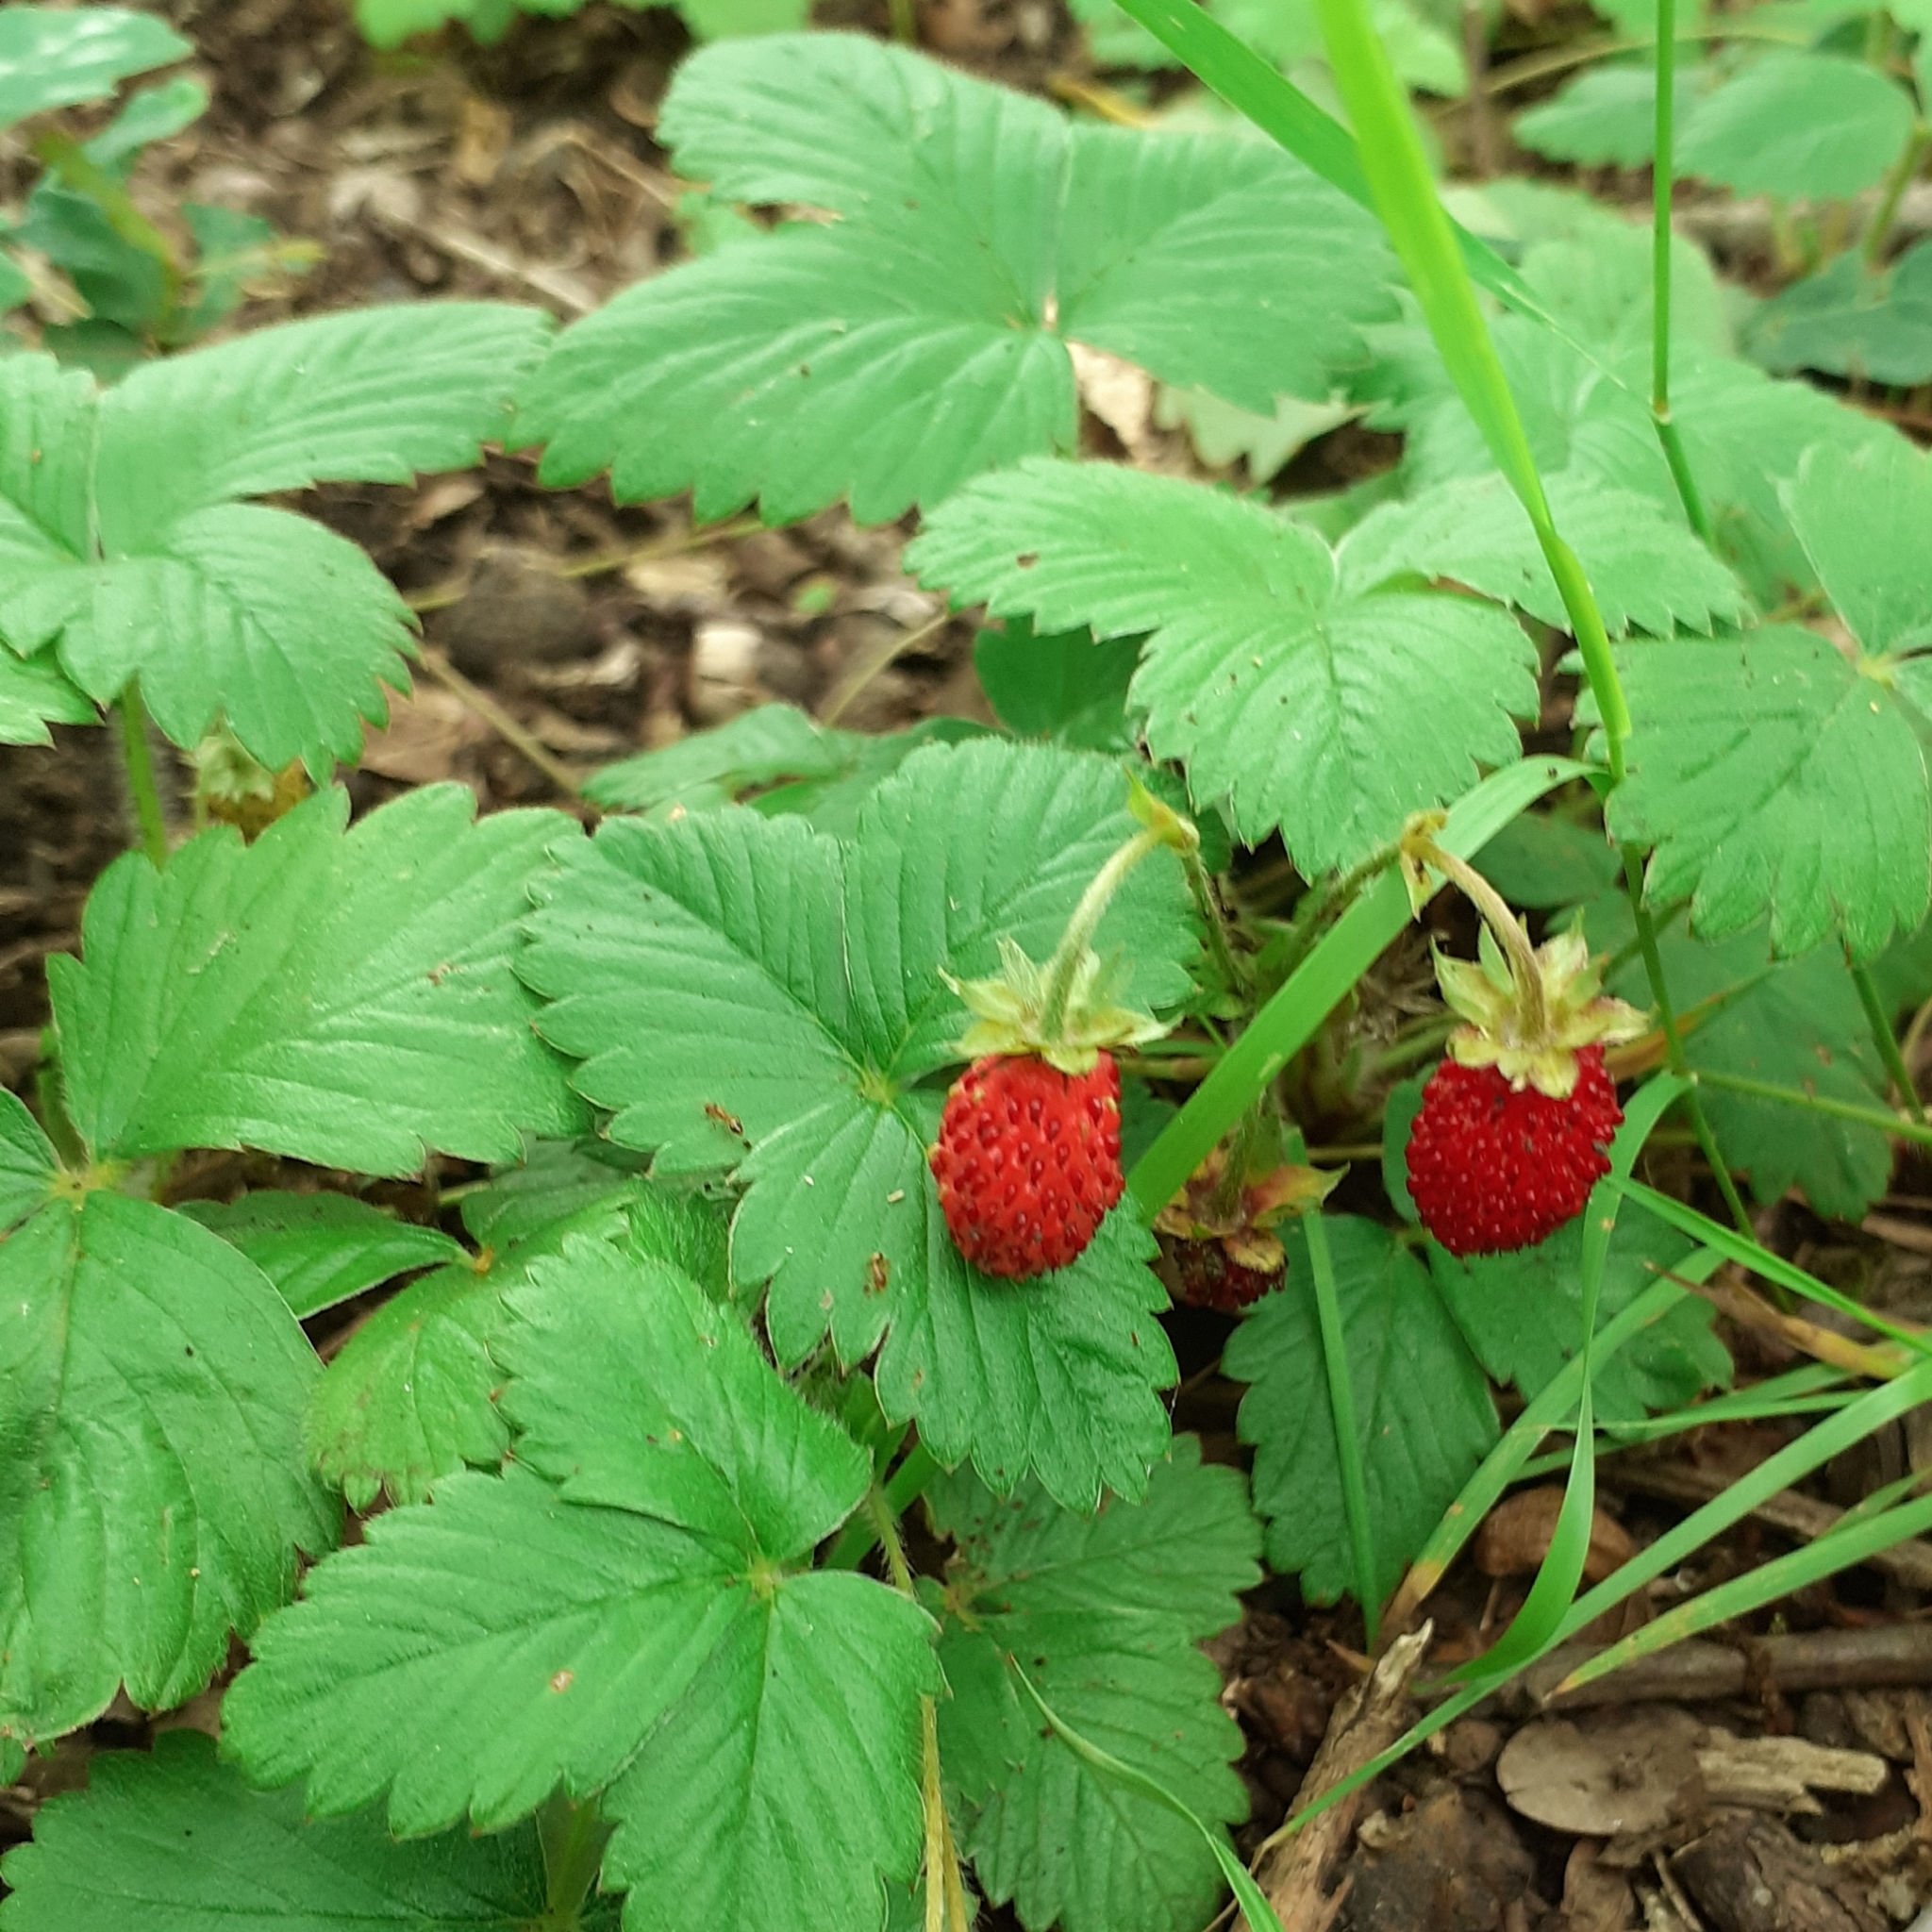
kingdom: Plantae
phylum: Tracheophyta
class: Magnoliopsida
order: Rosales
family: Rosaceae
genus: Fragaria
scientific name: Fragaria vesca
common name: Wild strawberry
